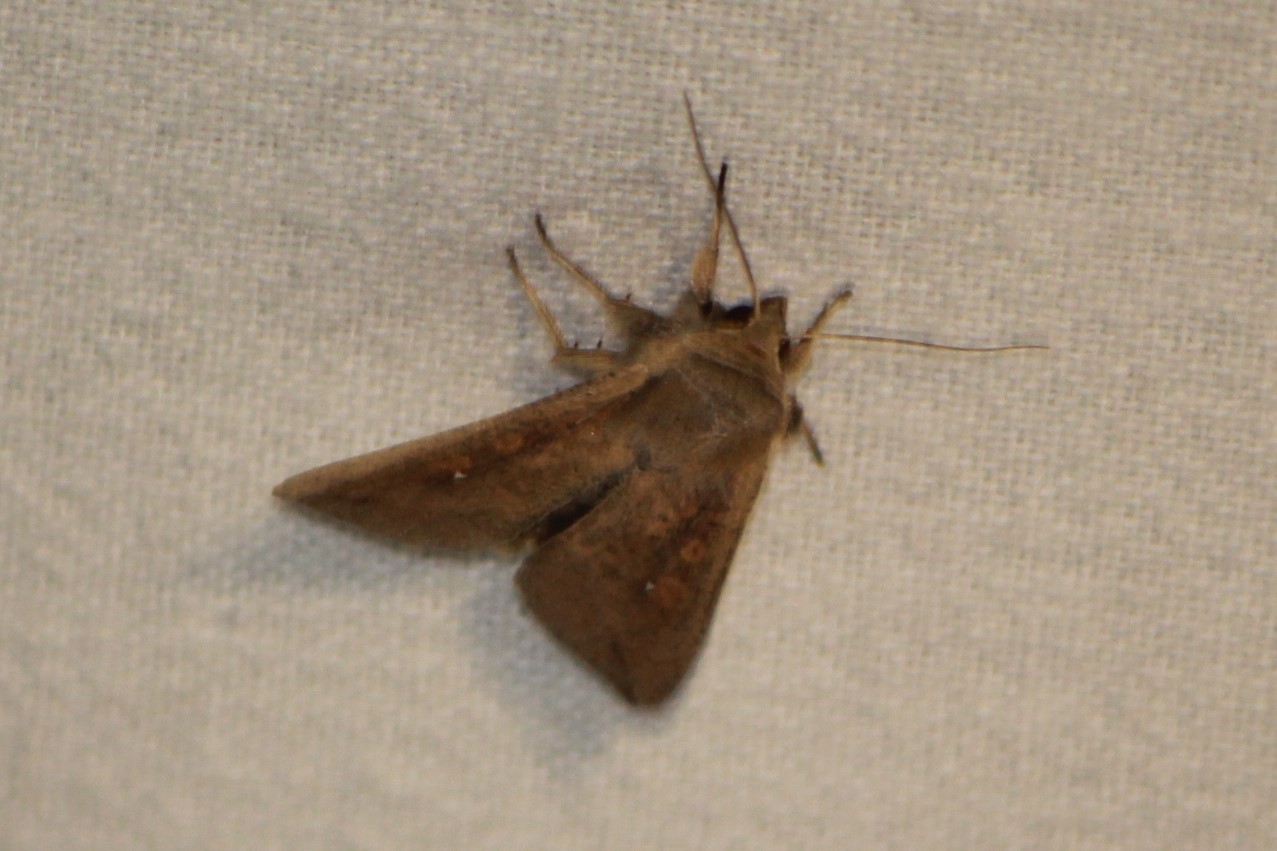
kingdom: Animalia
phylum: Arthropoda
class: Insecta
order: Lepidoptera
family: Noctuidae
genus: Mythimna
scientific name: Mythimna unipuncta
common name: White-speck
